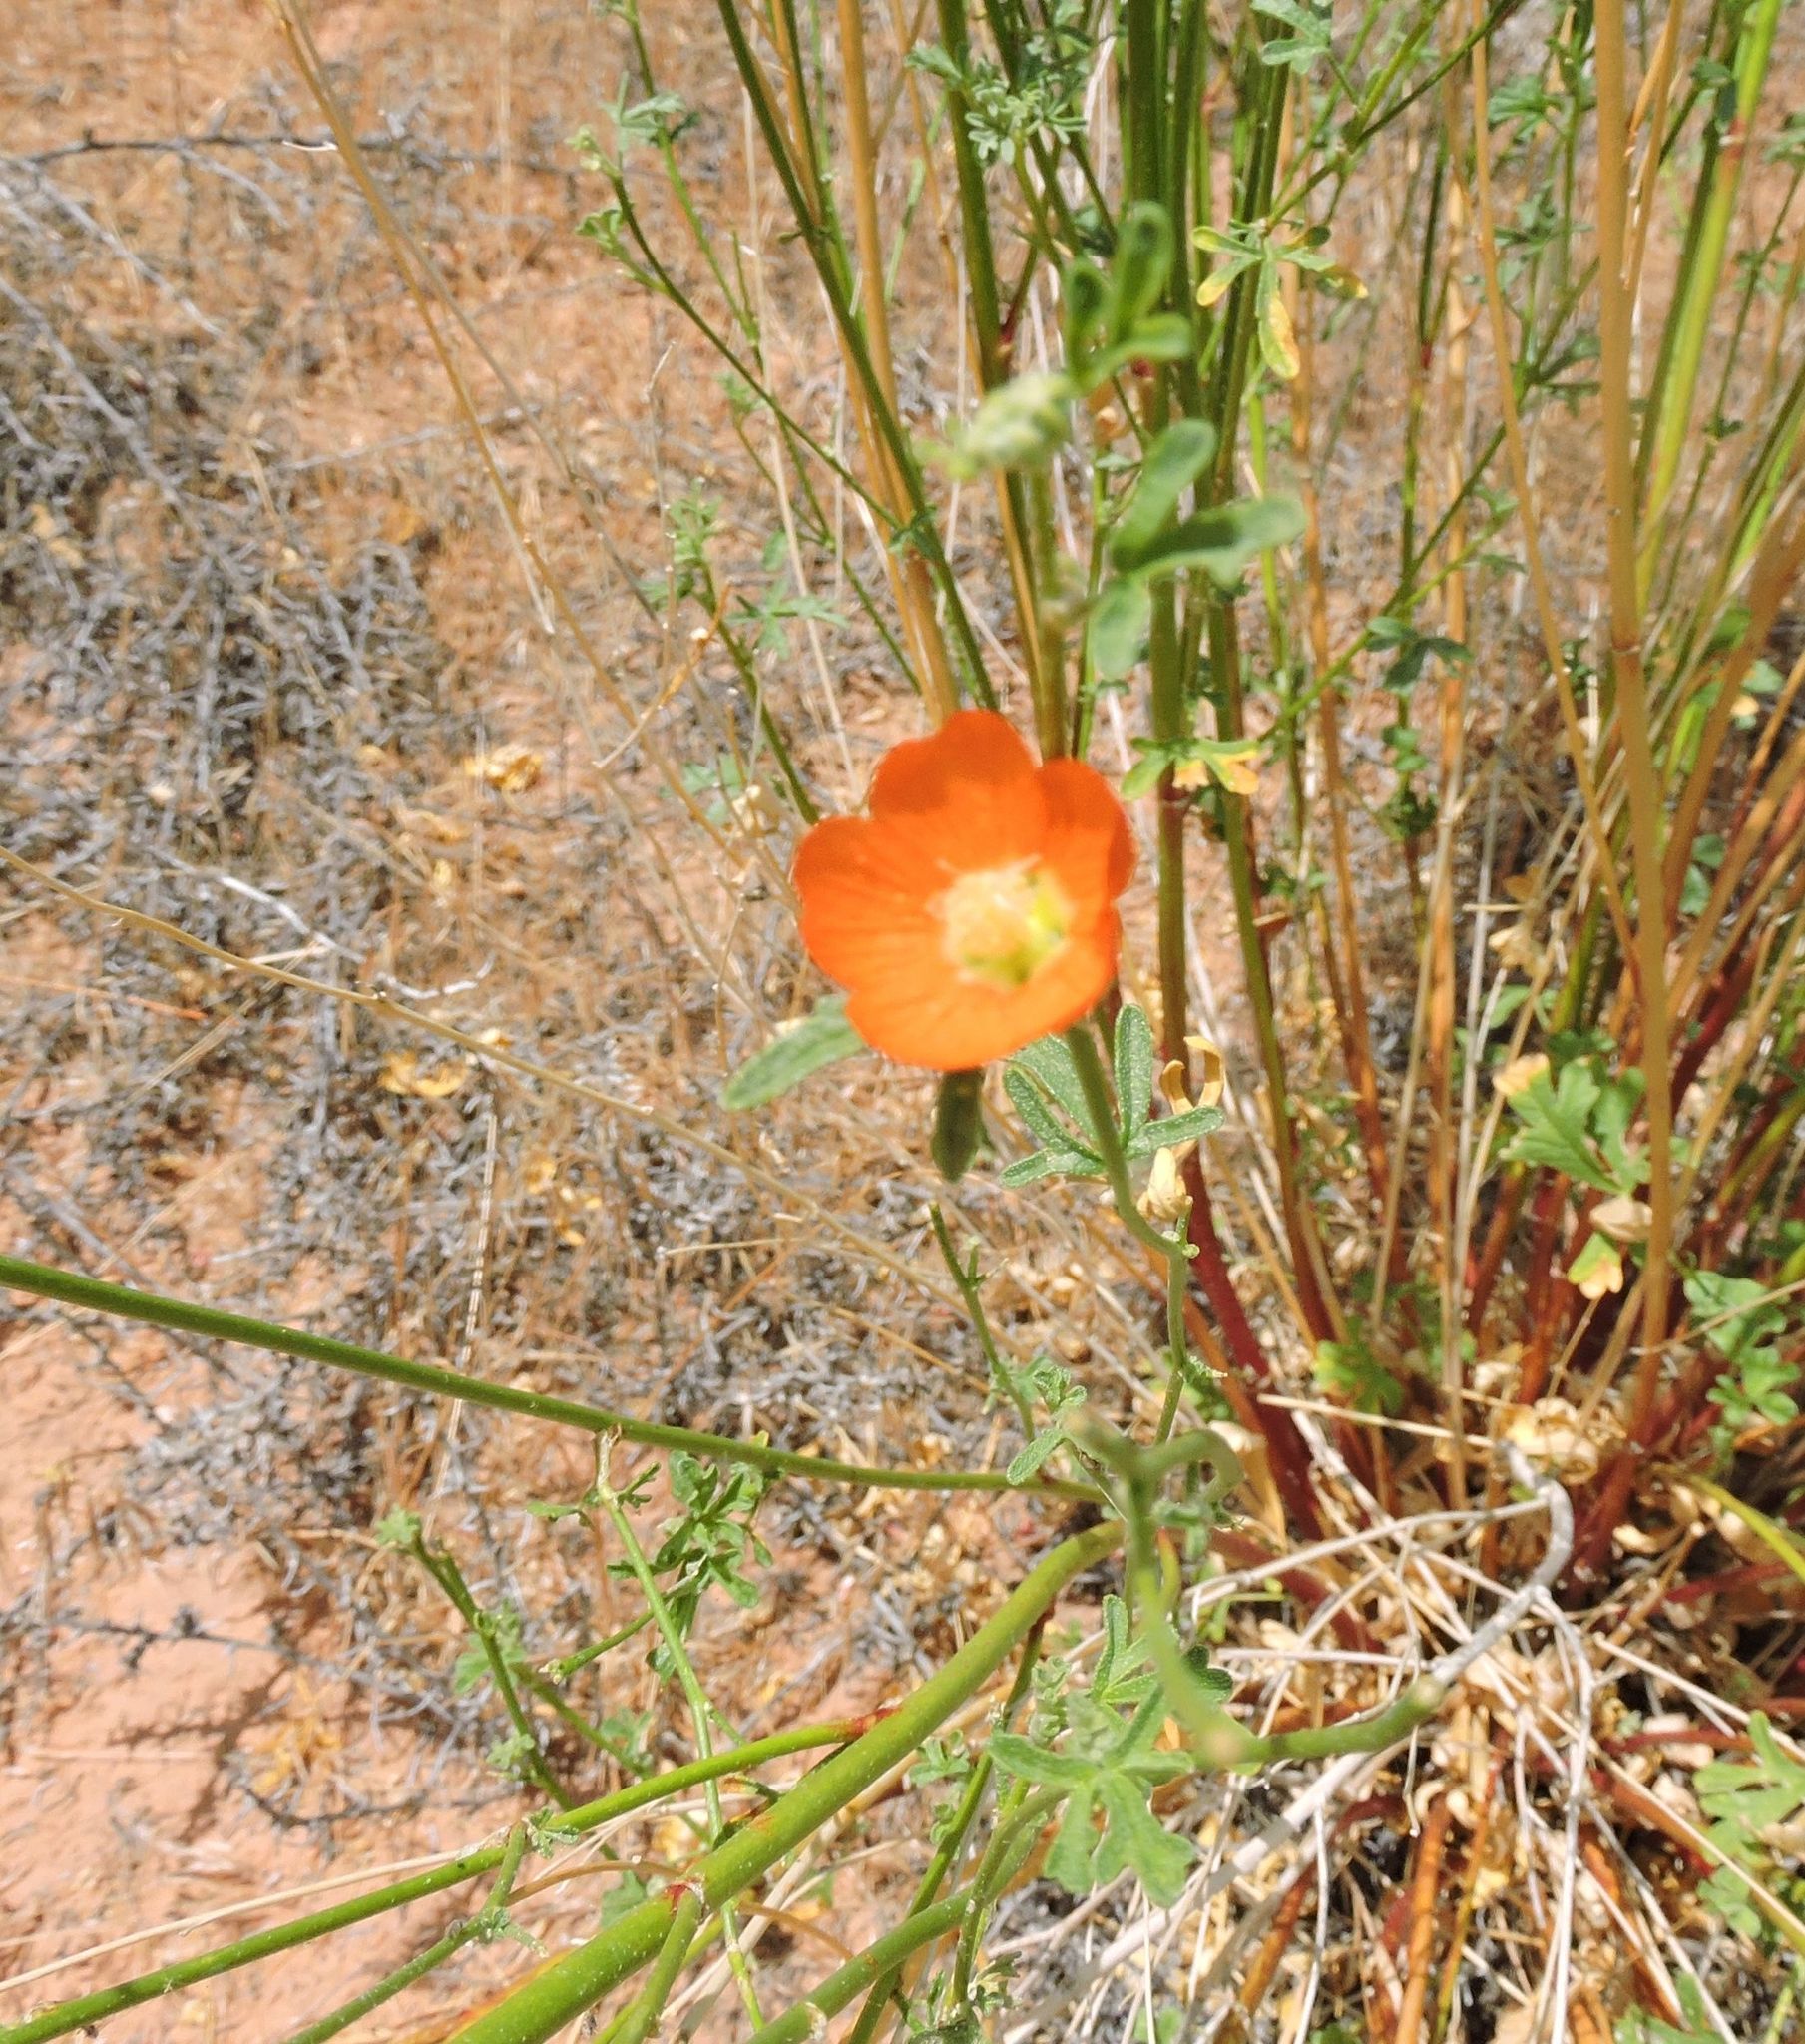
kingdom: Plantae
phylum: Tracheophyta
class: Magnoliopsida
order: Malvales
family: Malvaceae
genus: Sphaeralcea
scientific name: Sphaeralcea coccinea
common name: Moss-rose
